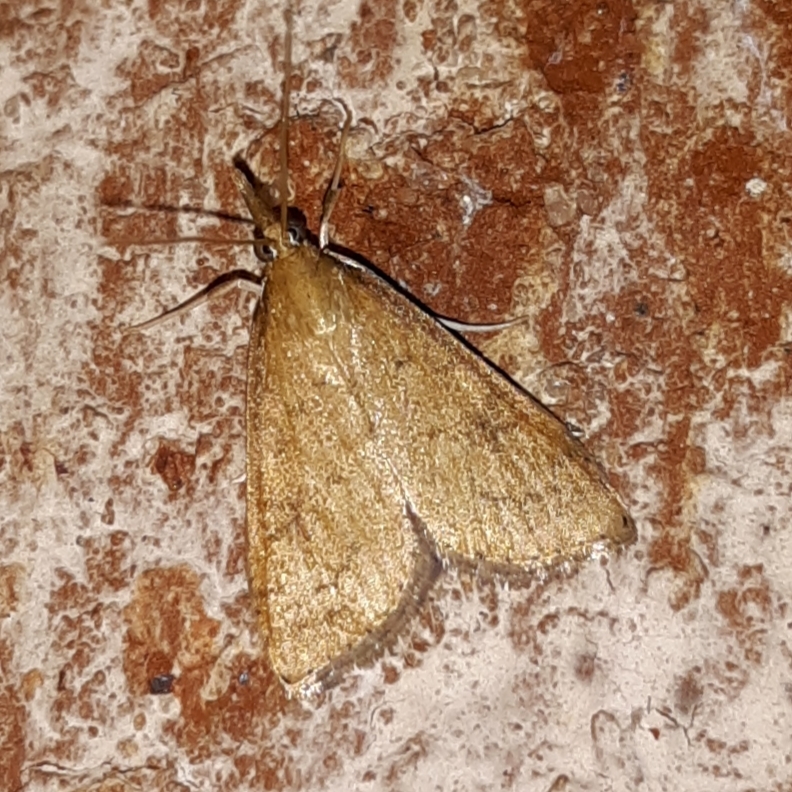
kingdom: Animalia
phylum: Arthropoda
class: Insecta
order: Lepidoptera
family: Crambidae
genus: Udea
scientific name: Udea rubigalis
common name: Celery leaftier moth
